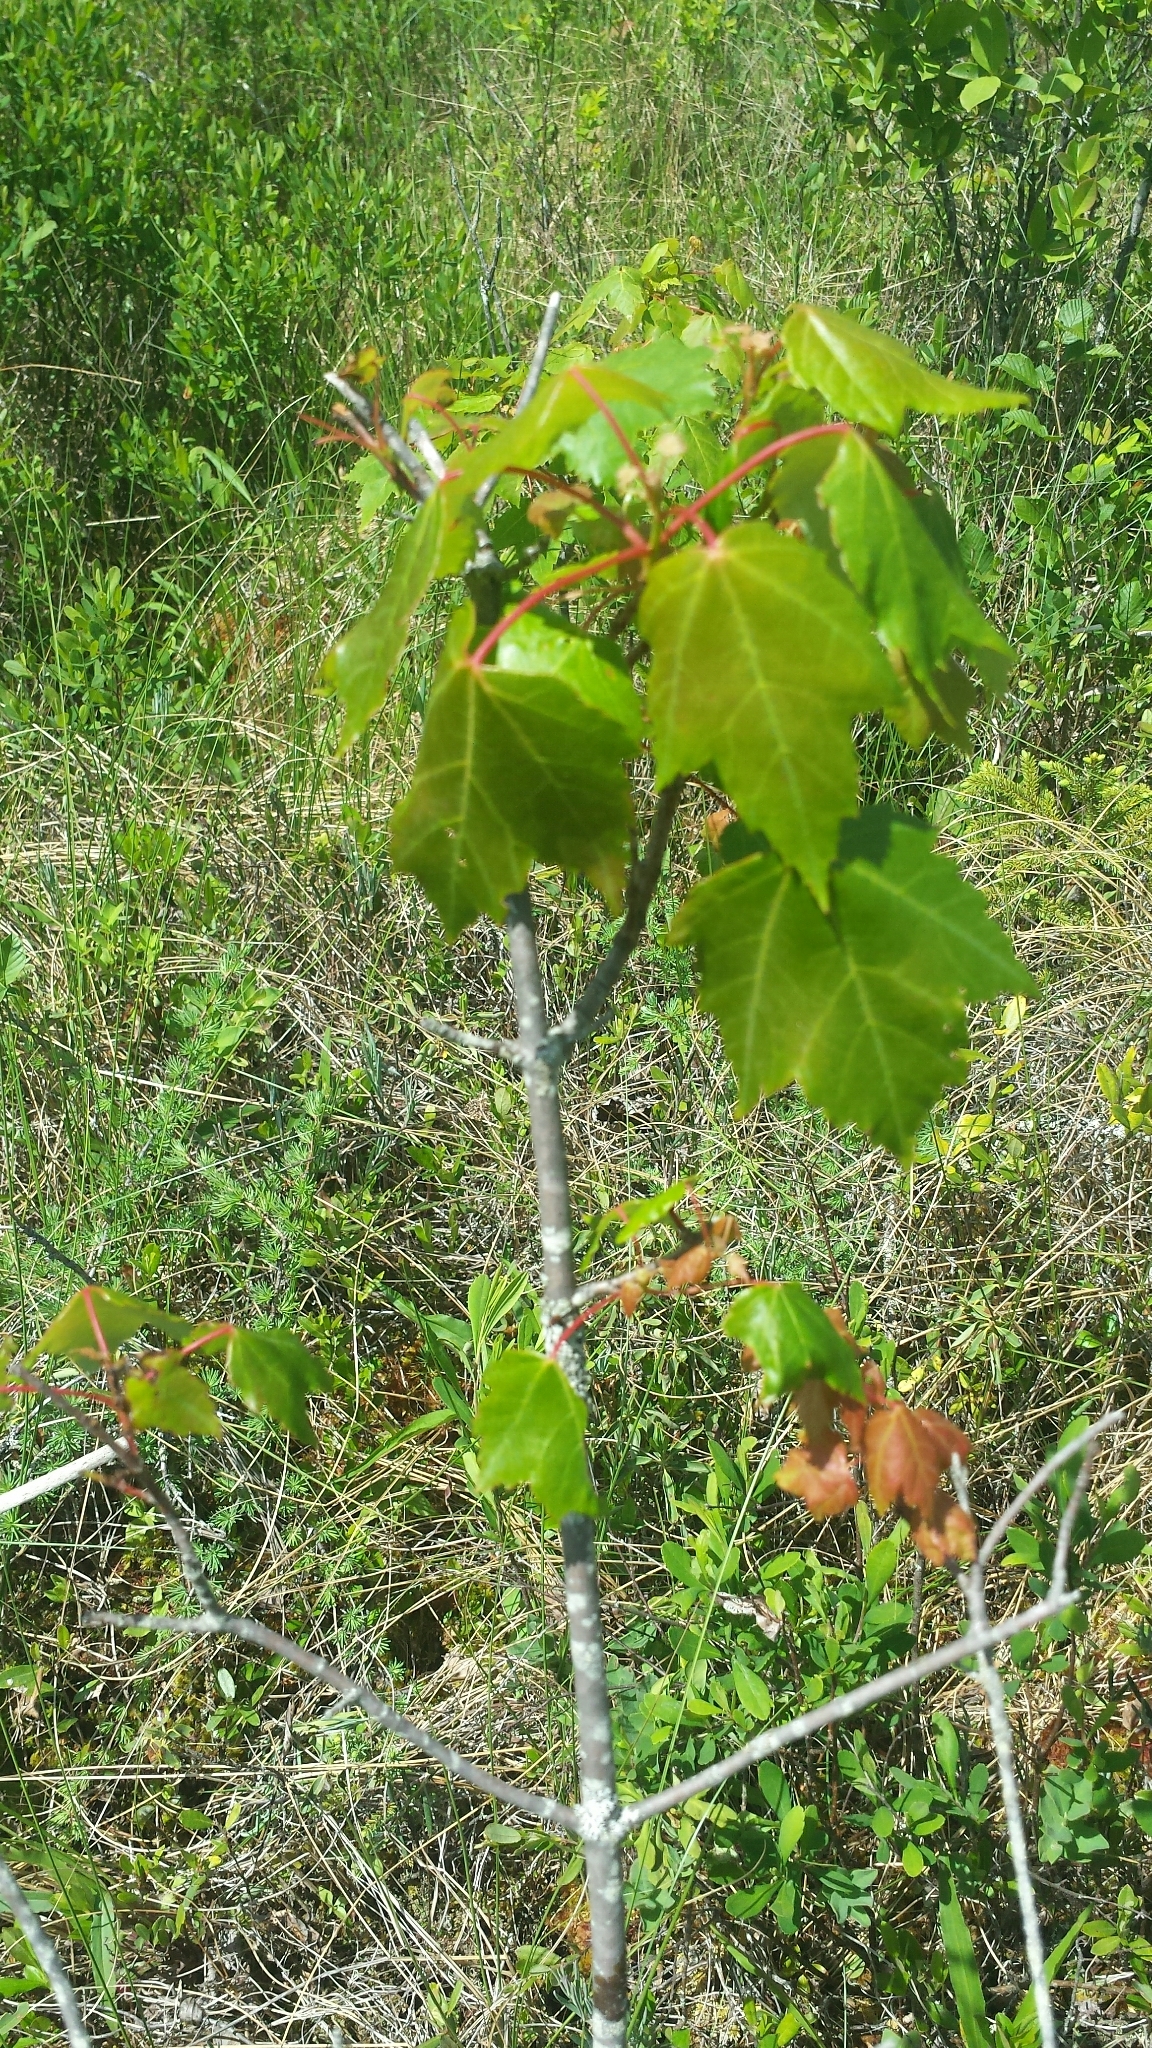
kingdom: Plantae
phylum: Tracheophyta
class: Magnoliopsida
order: Sapindales
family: Sapindaceae
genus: Acer
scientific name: Acer rubrum
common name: Red maple
